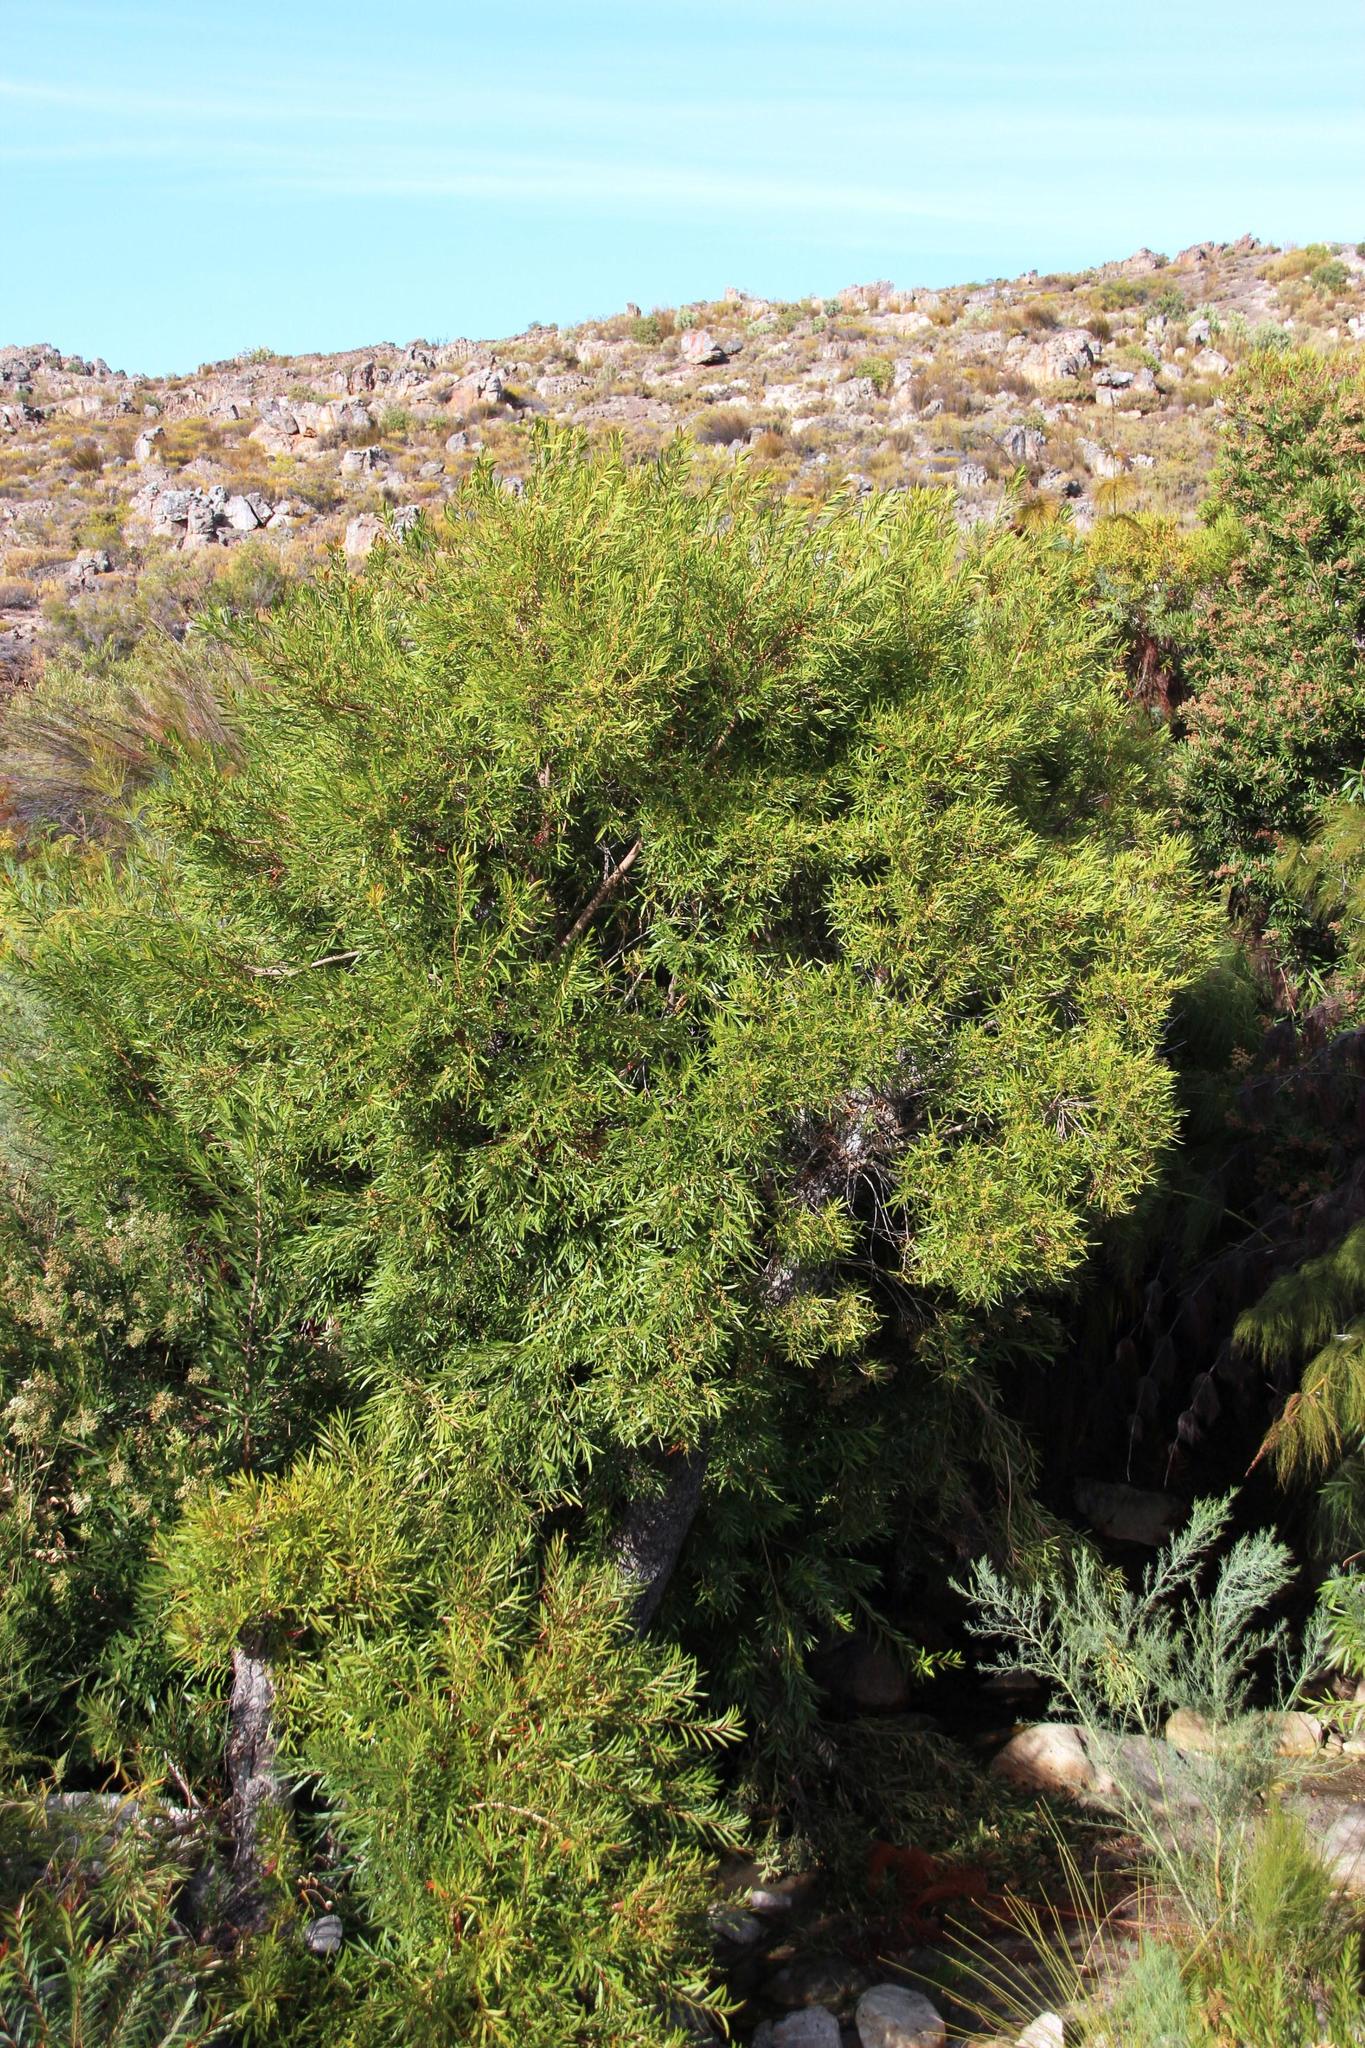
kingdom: Plantae
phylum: Tracheophyta
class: Magnoliopsida
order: Myrtales
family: Myrtaceae
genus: Callistemon
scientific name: Callistemon lanceolatus
